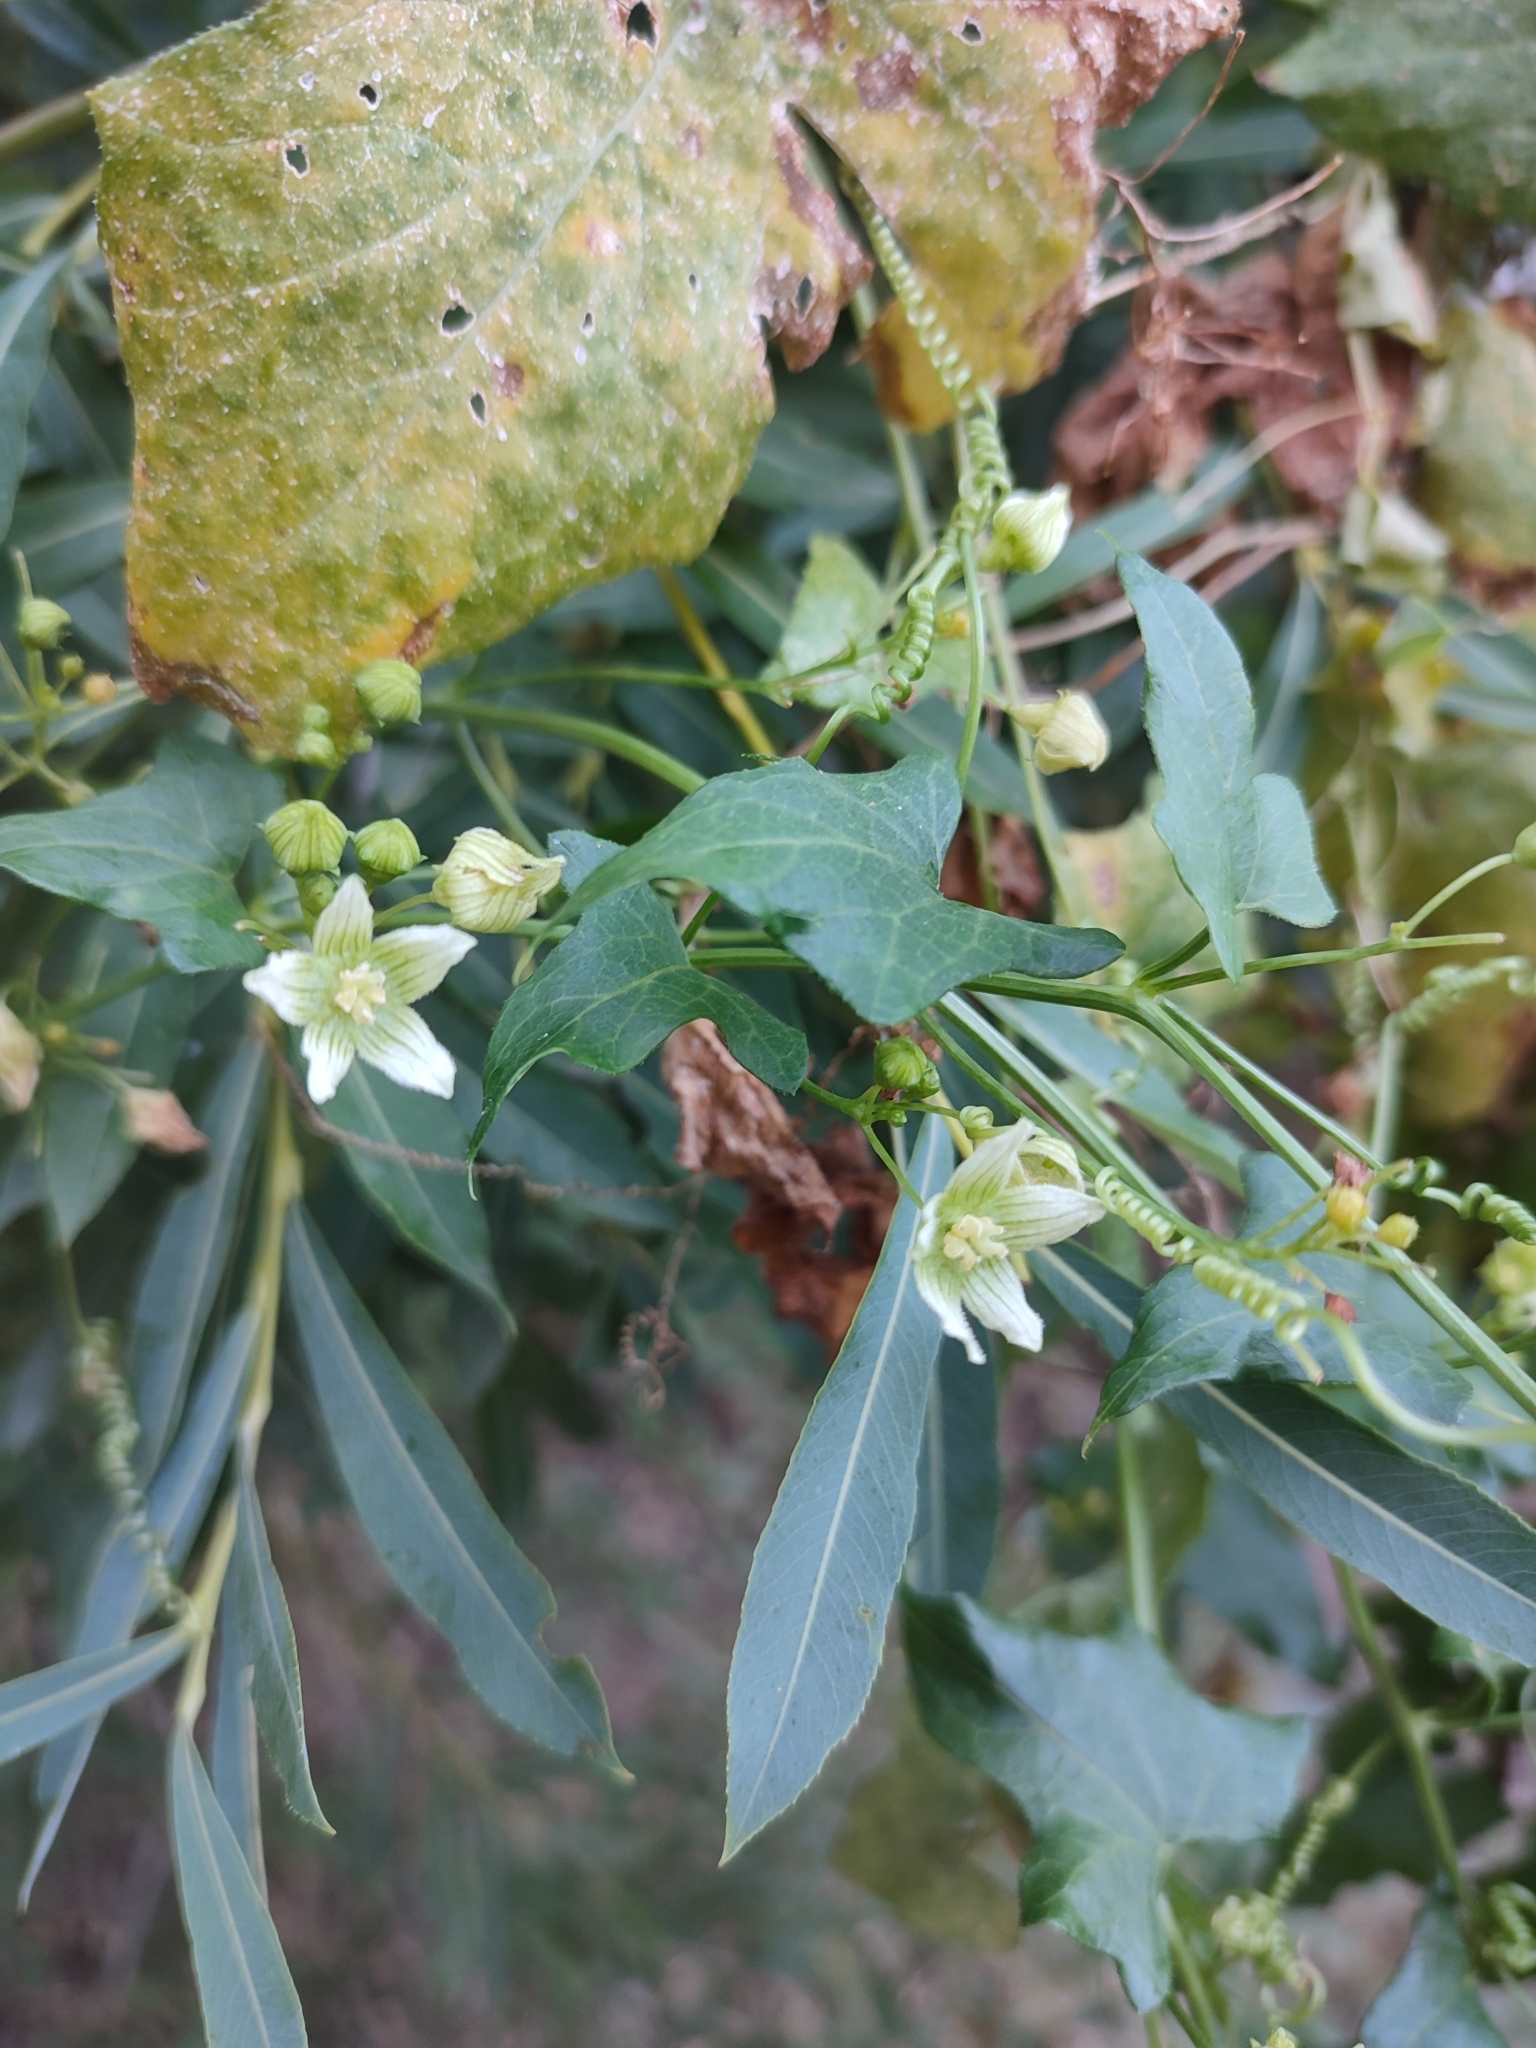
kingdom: Plantae
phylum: Tracheophyta
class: Magnoliopsida
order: Cucurbitales
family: Cucurbitaceae
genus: Bryonia
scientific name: Bryonia cretica
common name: Cretan bryony
